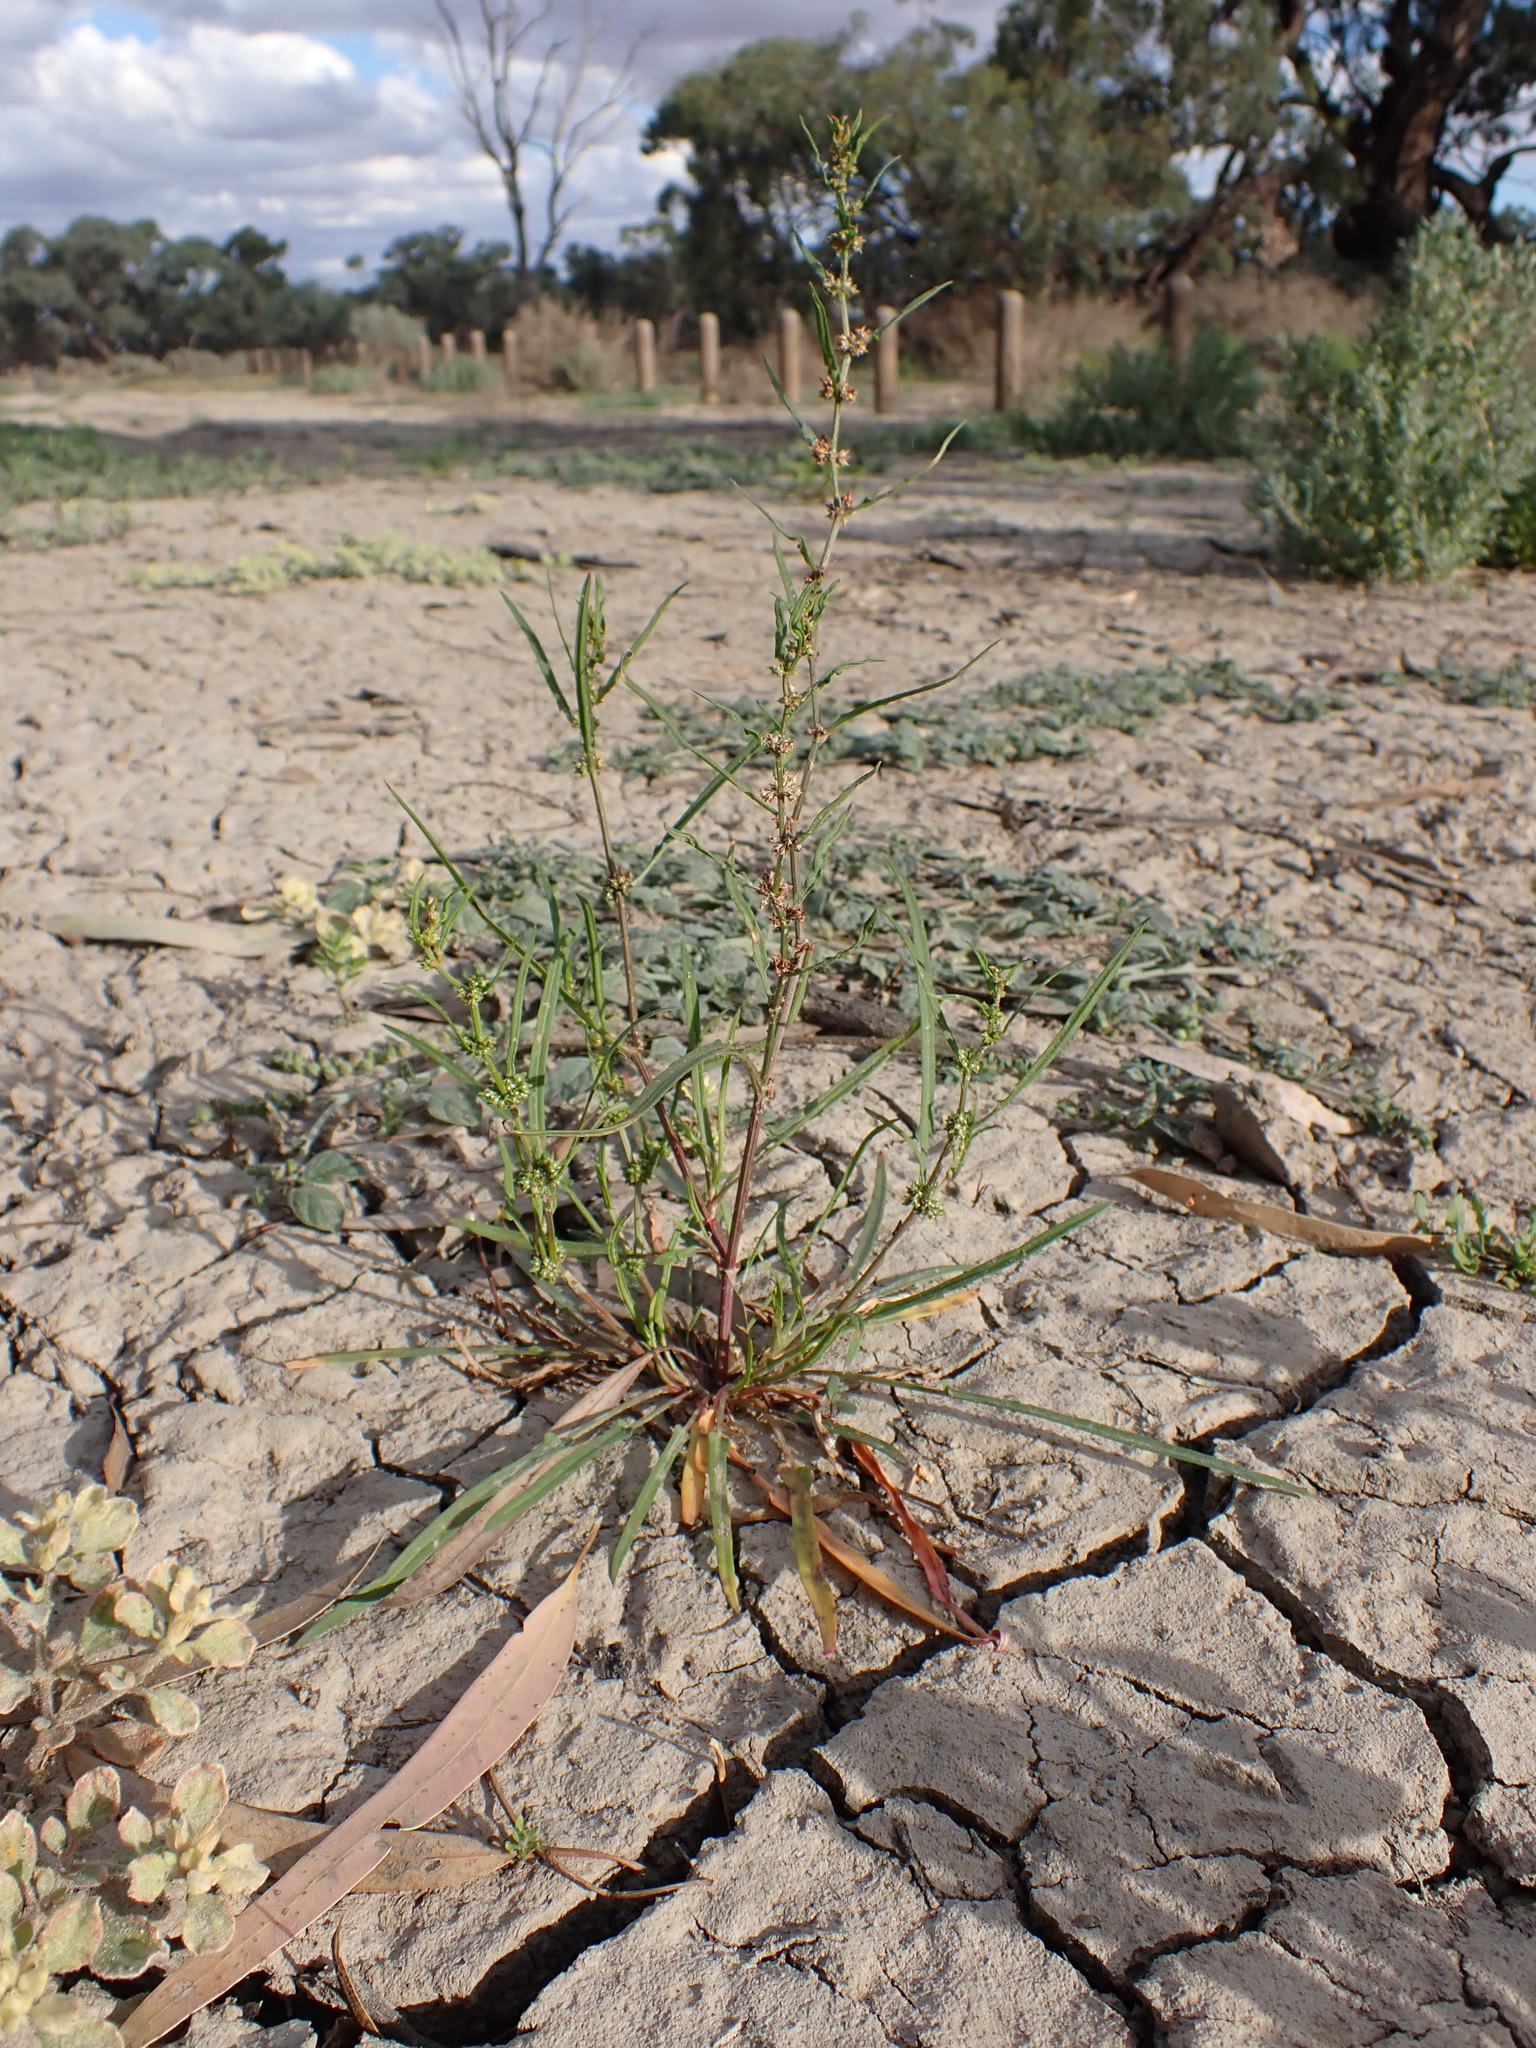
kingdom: Plantae
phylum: Tracheophyta
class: Magnoliopsida
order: Caryophyllales
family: Polygonaceae
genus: Rumex
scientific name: Rumex tenax
